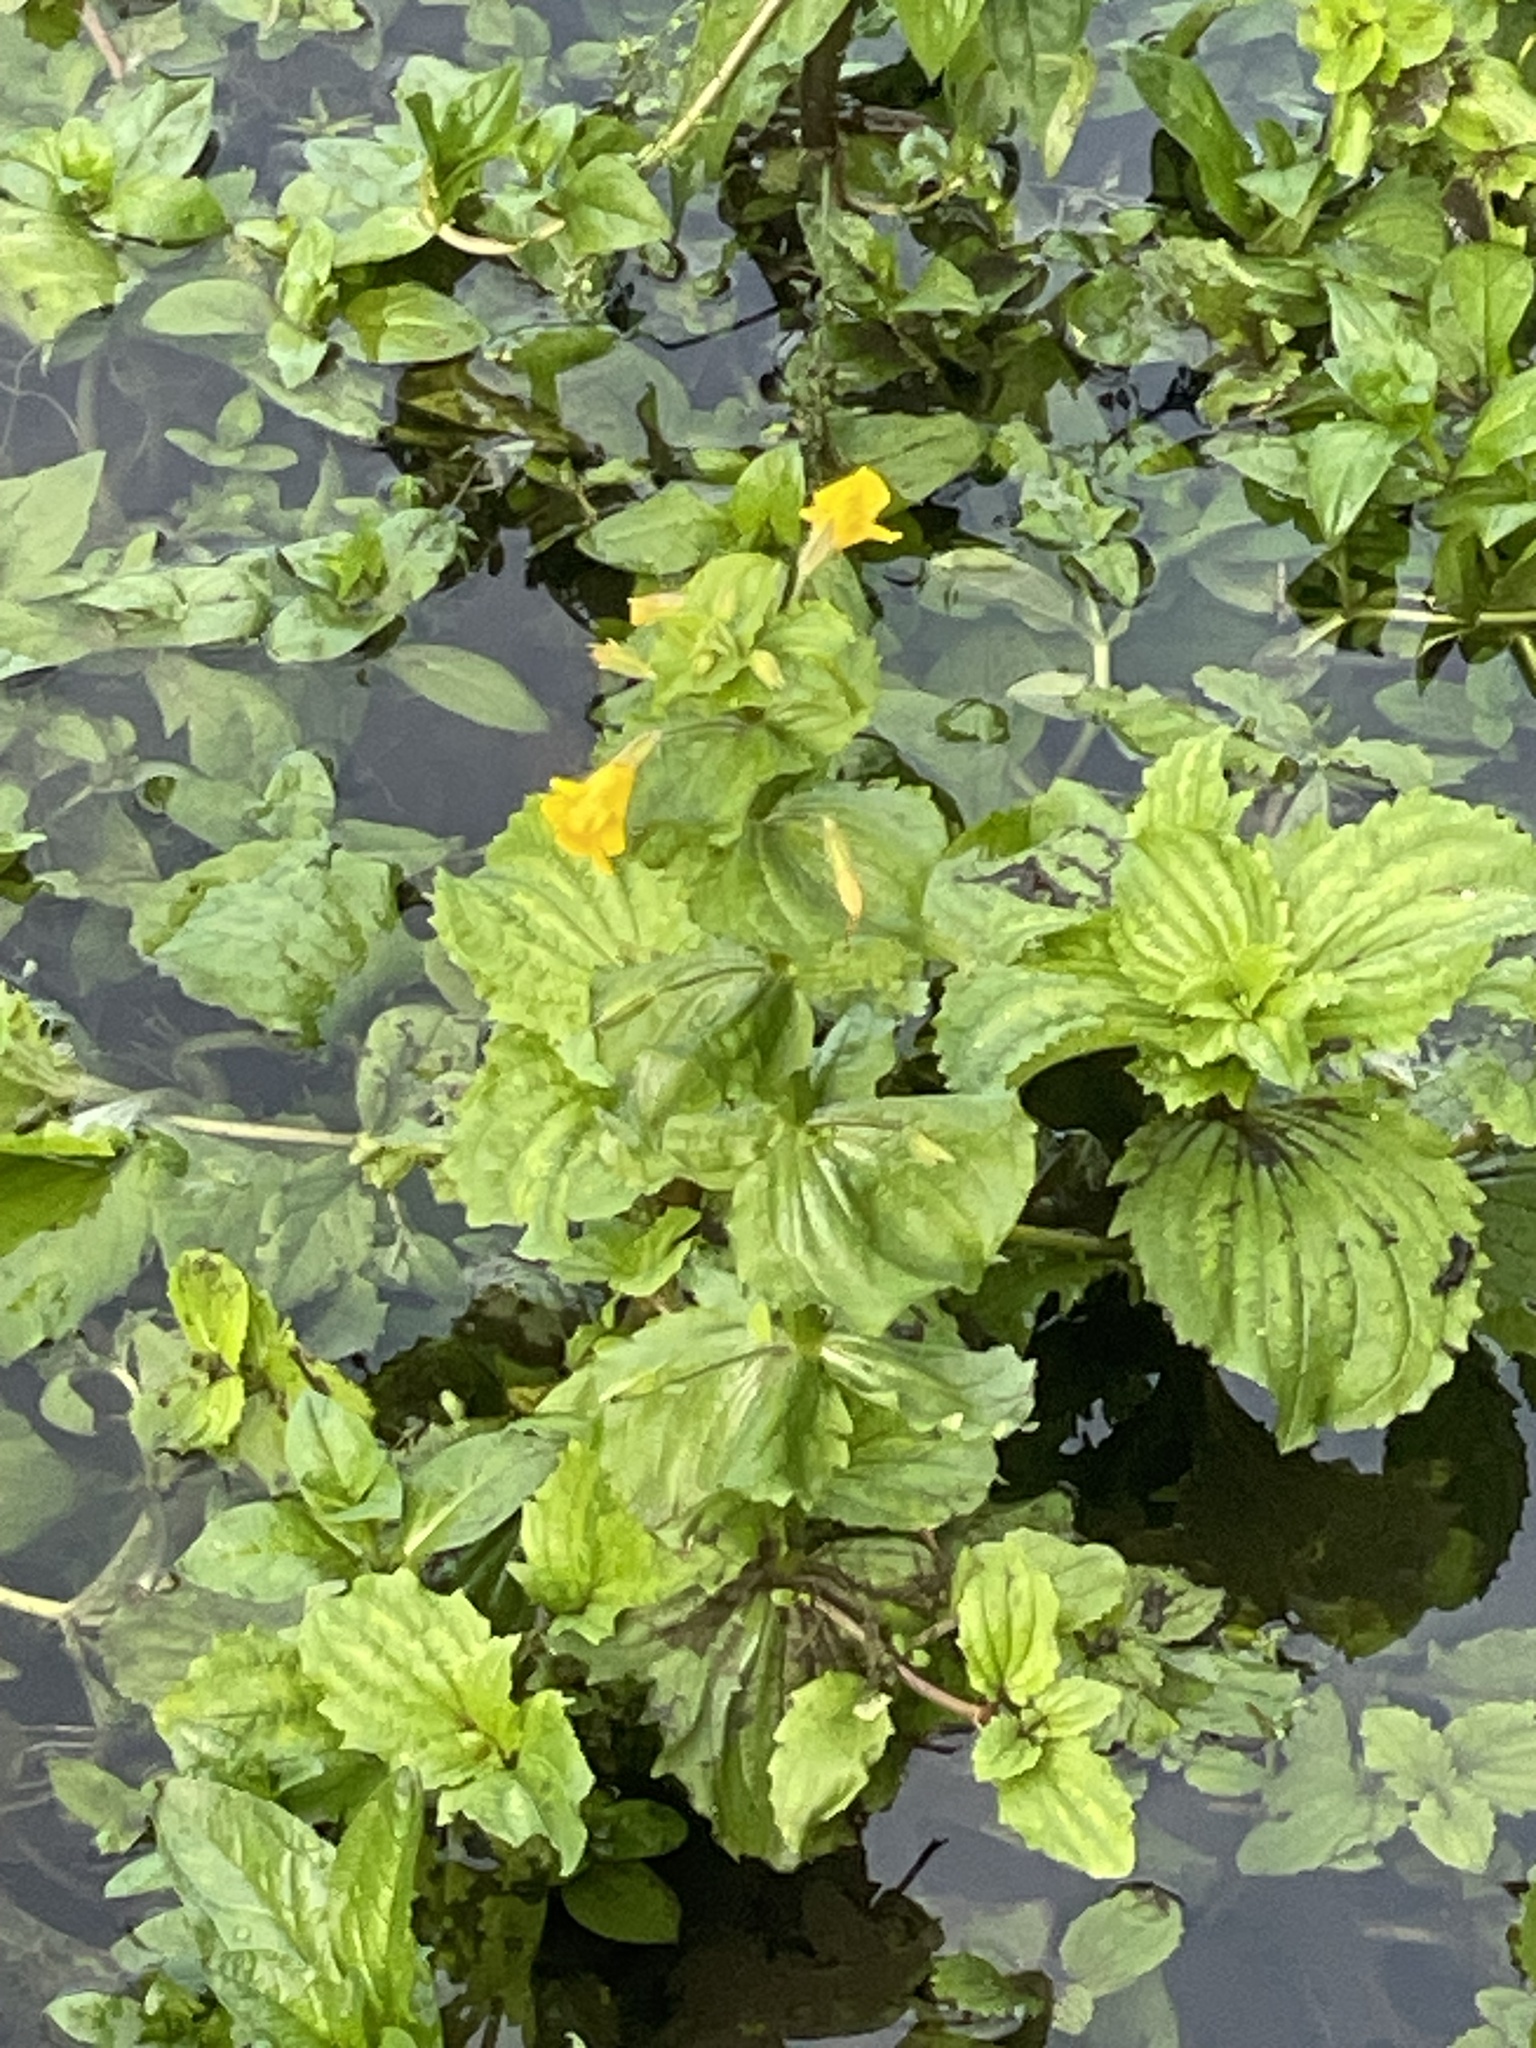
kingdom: Plantae
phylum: Tracheophyta
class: Magnoliopsida
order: Lamiales
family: Phrymaceae
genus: Erythranthe
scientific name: Erythranthe guttata
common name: Monkeyflower
